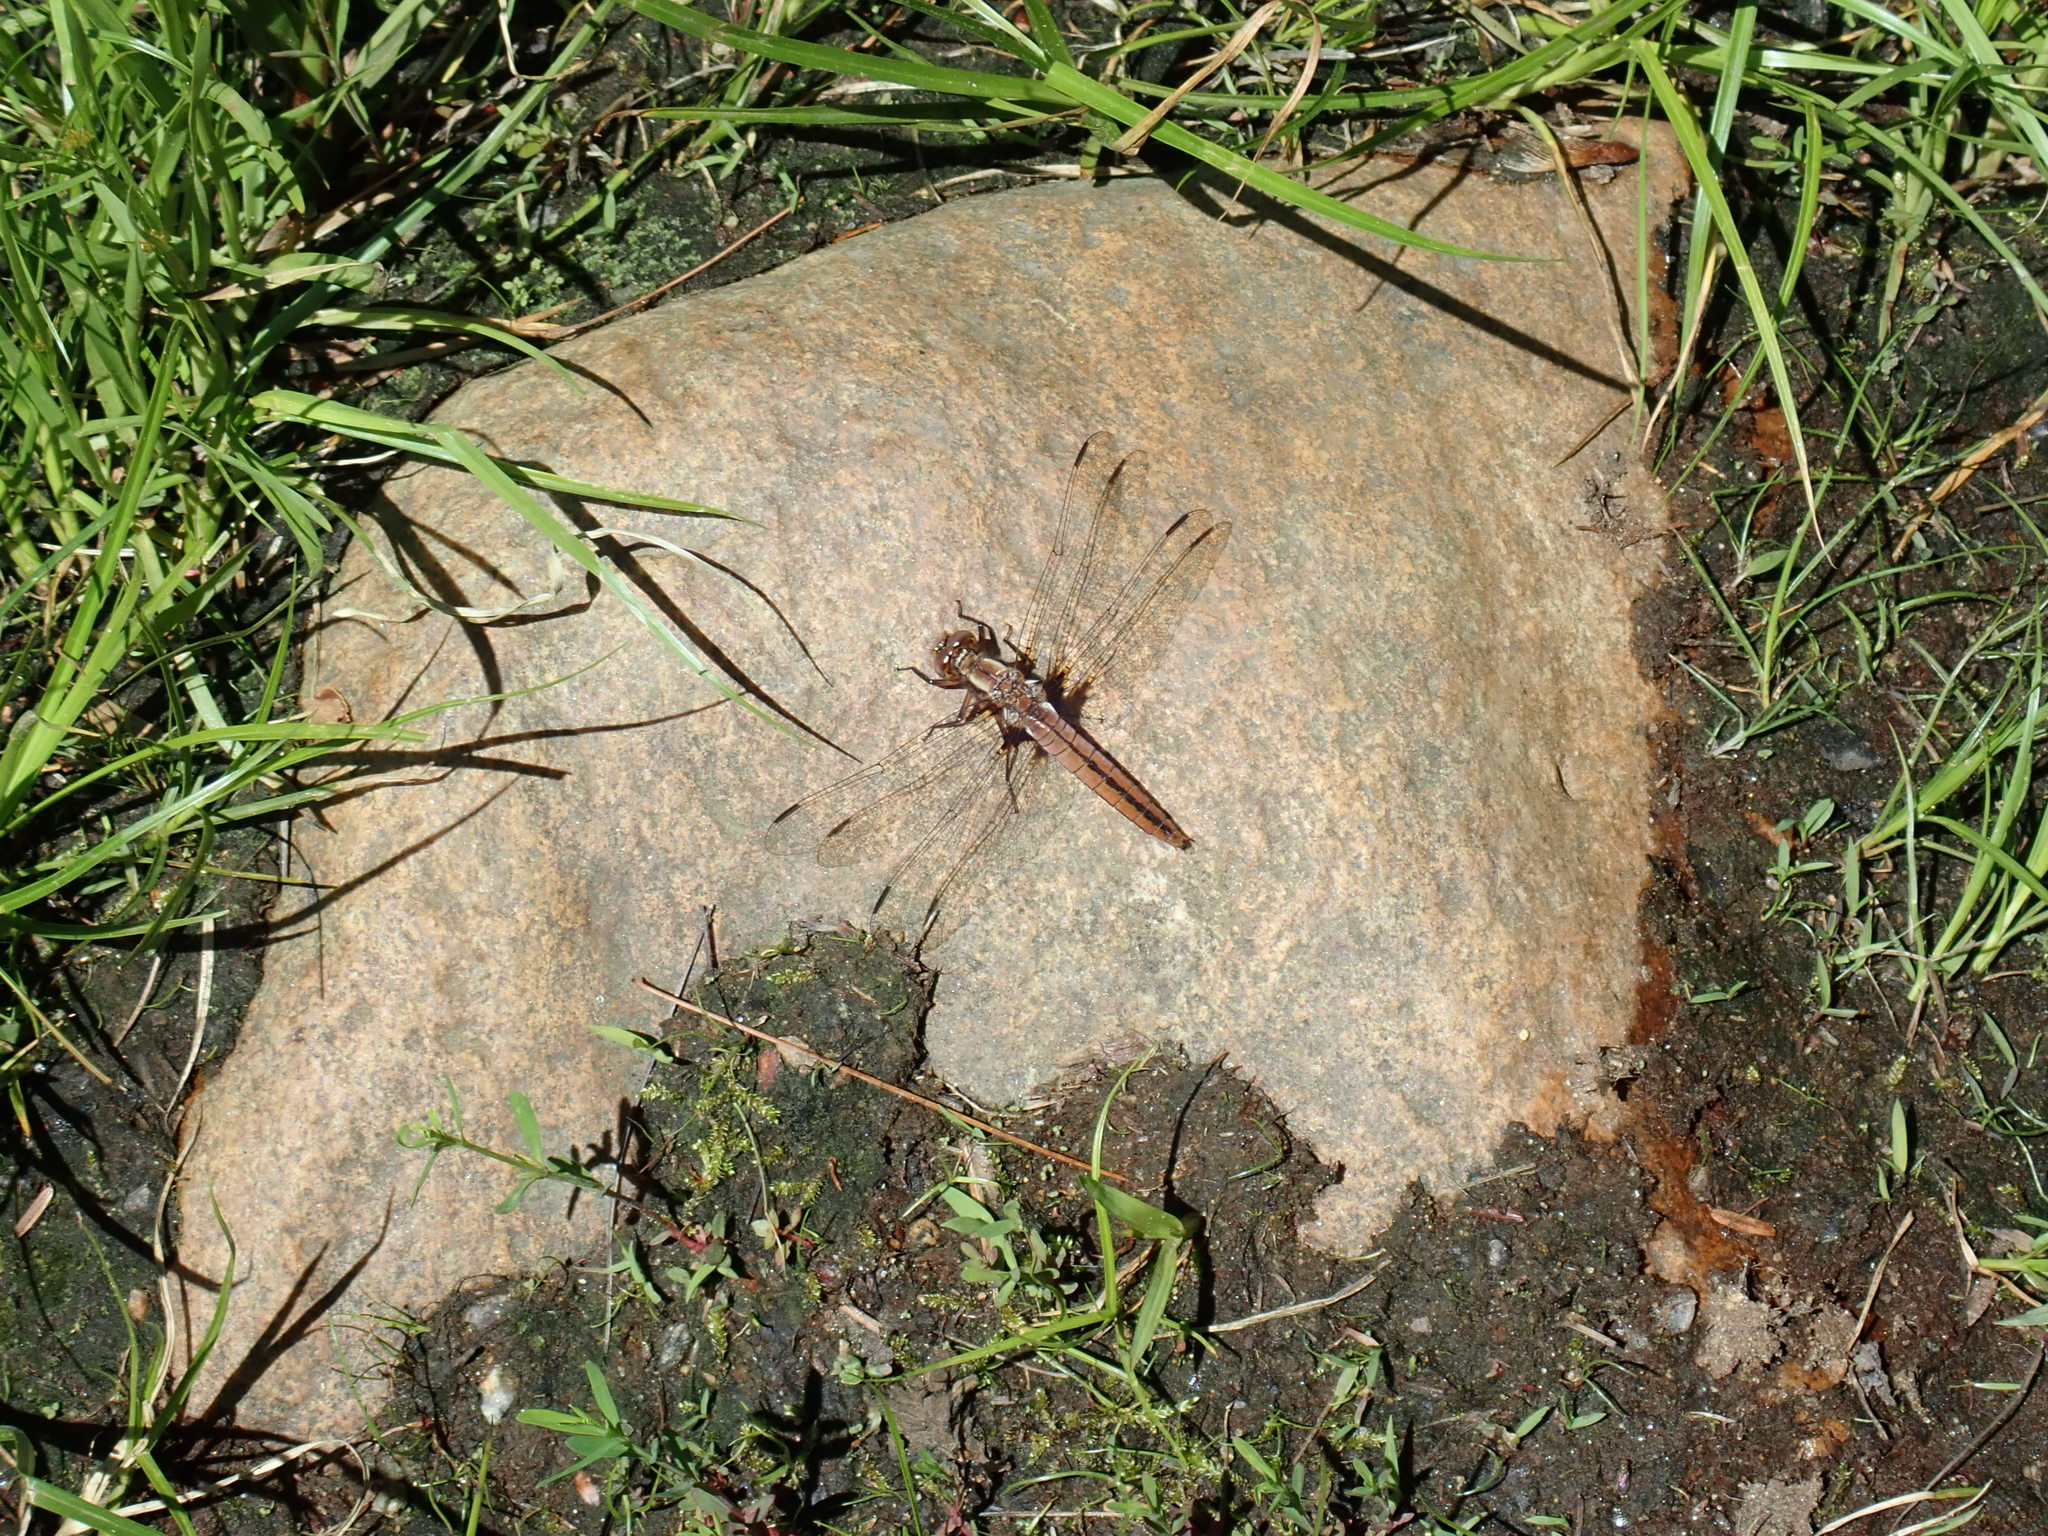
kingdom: Animalia
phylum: Arthropoda
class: Insecta
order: Odonata
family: Libellulidae
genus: Ladona
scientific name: Ladona julia
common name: Chalk-fronted corporal
